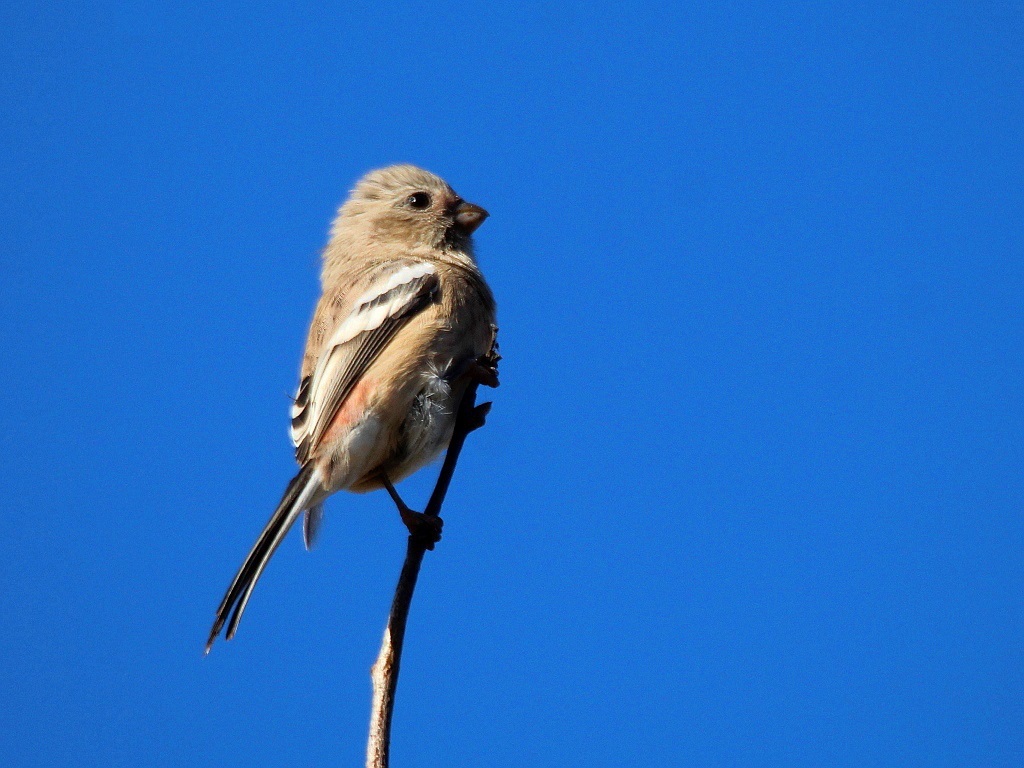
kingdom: Animalia
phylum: Chordata
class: Aves
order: Passeriformes
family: Fringillidae
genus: Carpodacus
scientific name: Carpodacus sibiricus
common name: Long-tailed rosefinch
